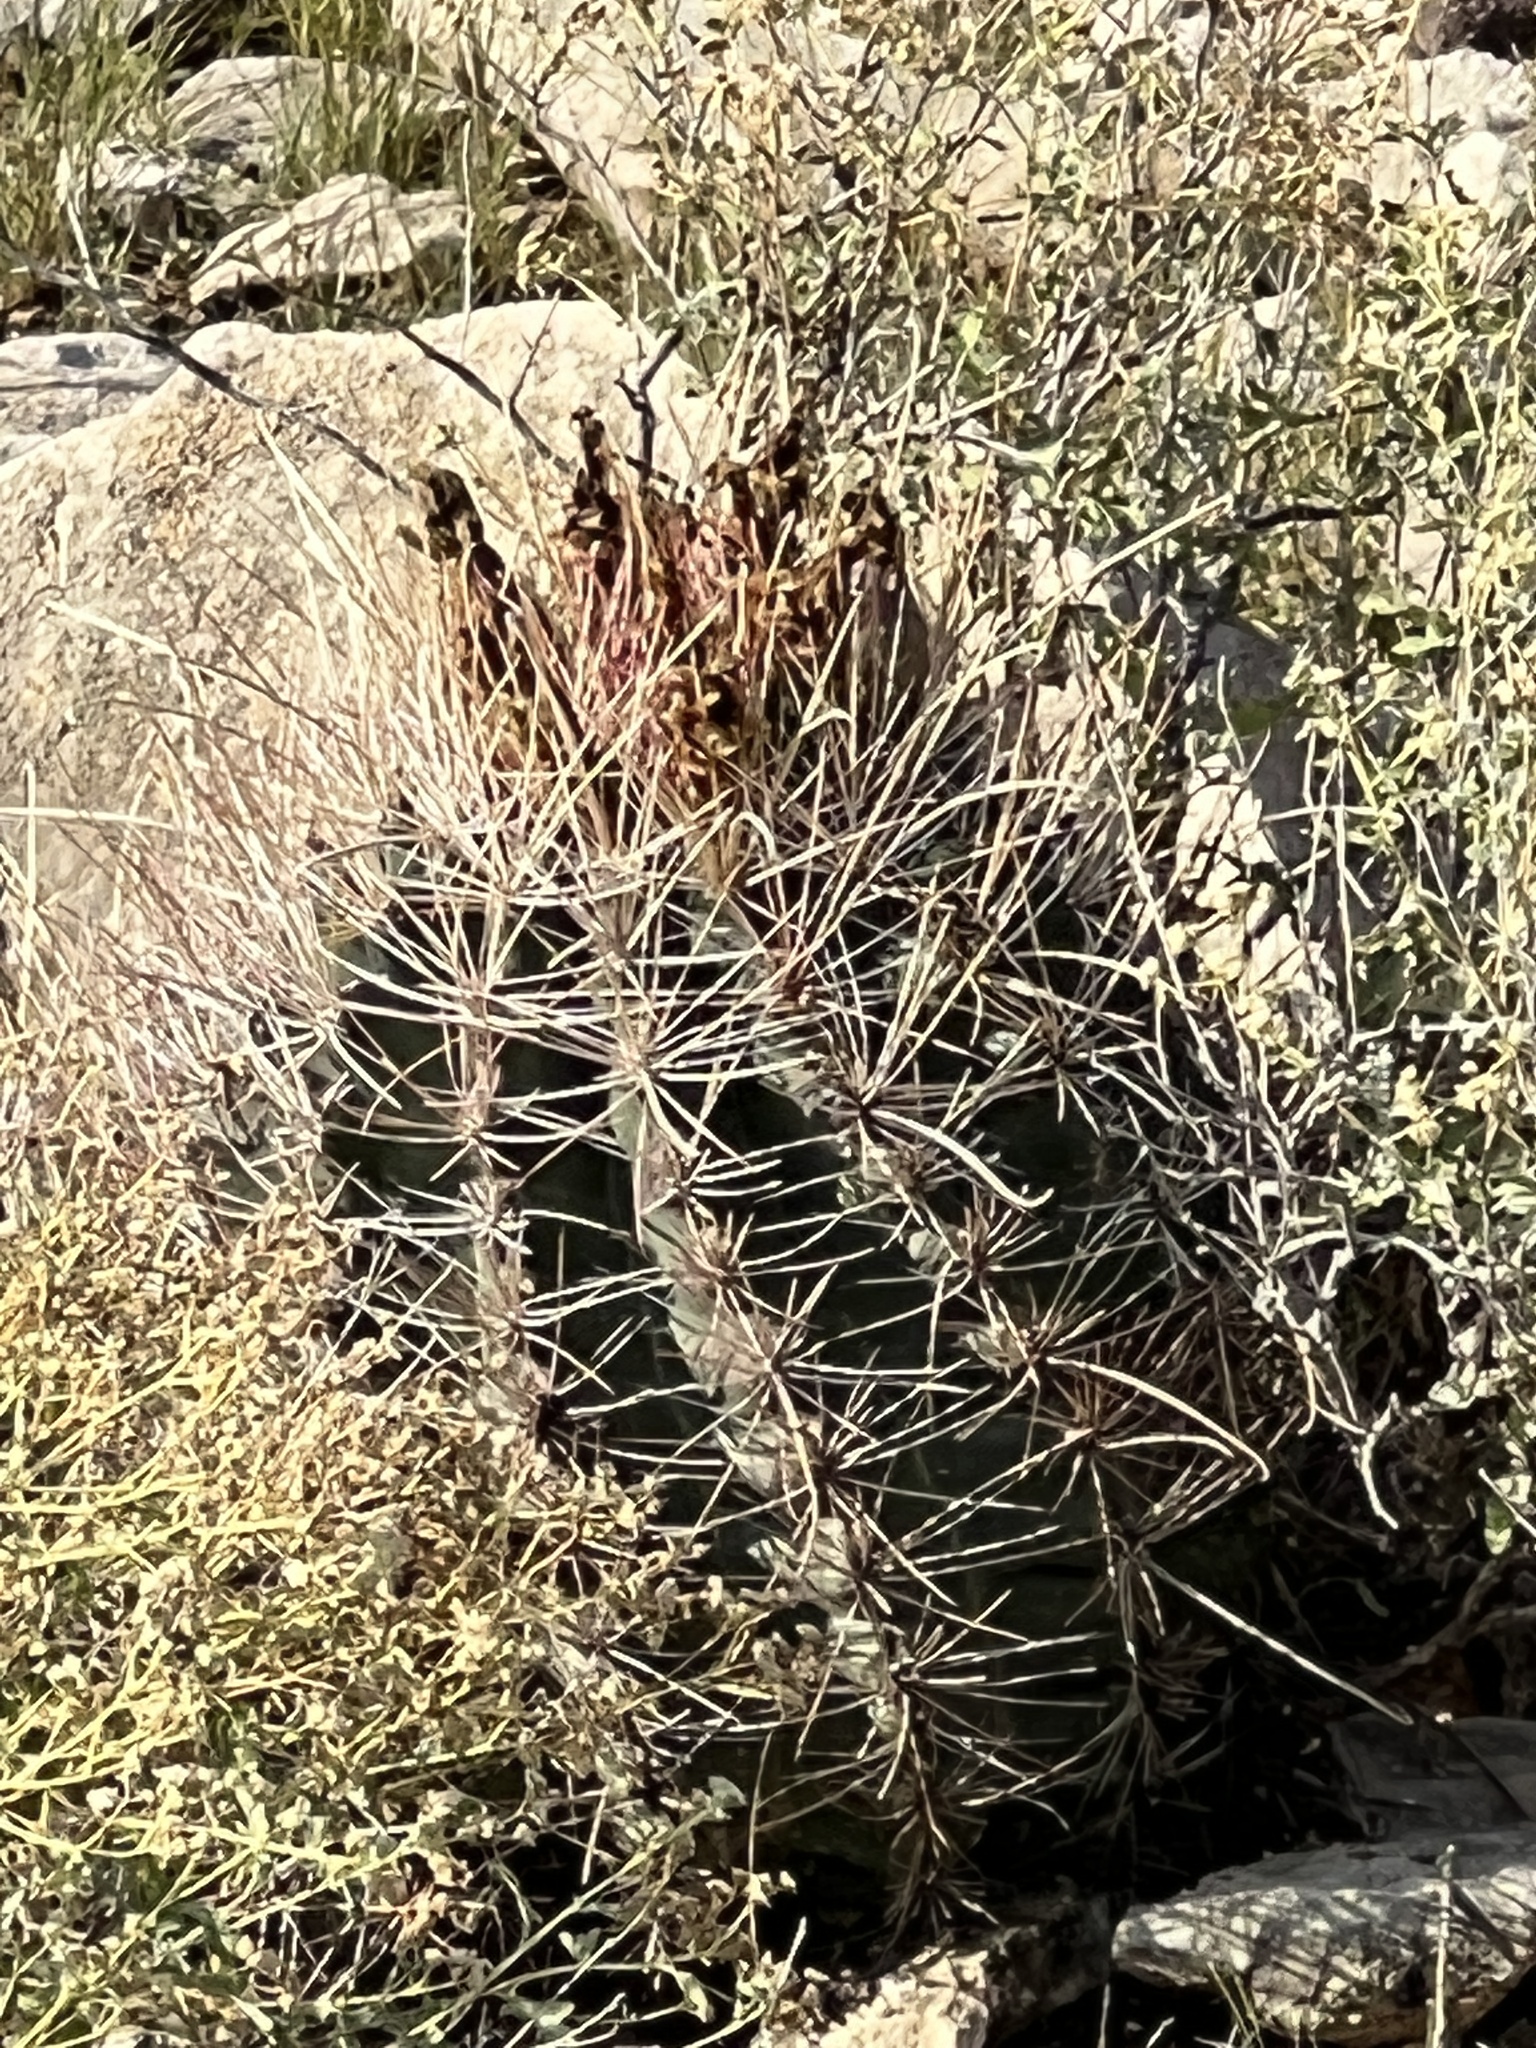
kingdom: Plantae
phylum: Tracheophyta
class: Magnoliopsida
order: Caryophyllales
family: Cactaceae
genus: Bisnaga
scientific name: Bisnaga hamatacantha
